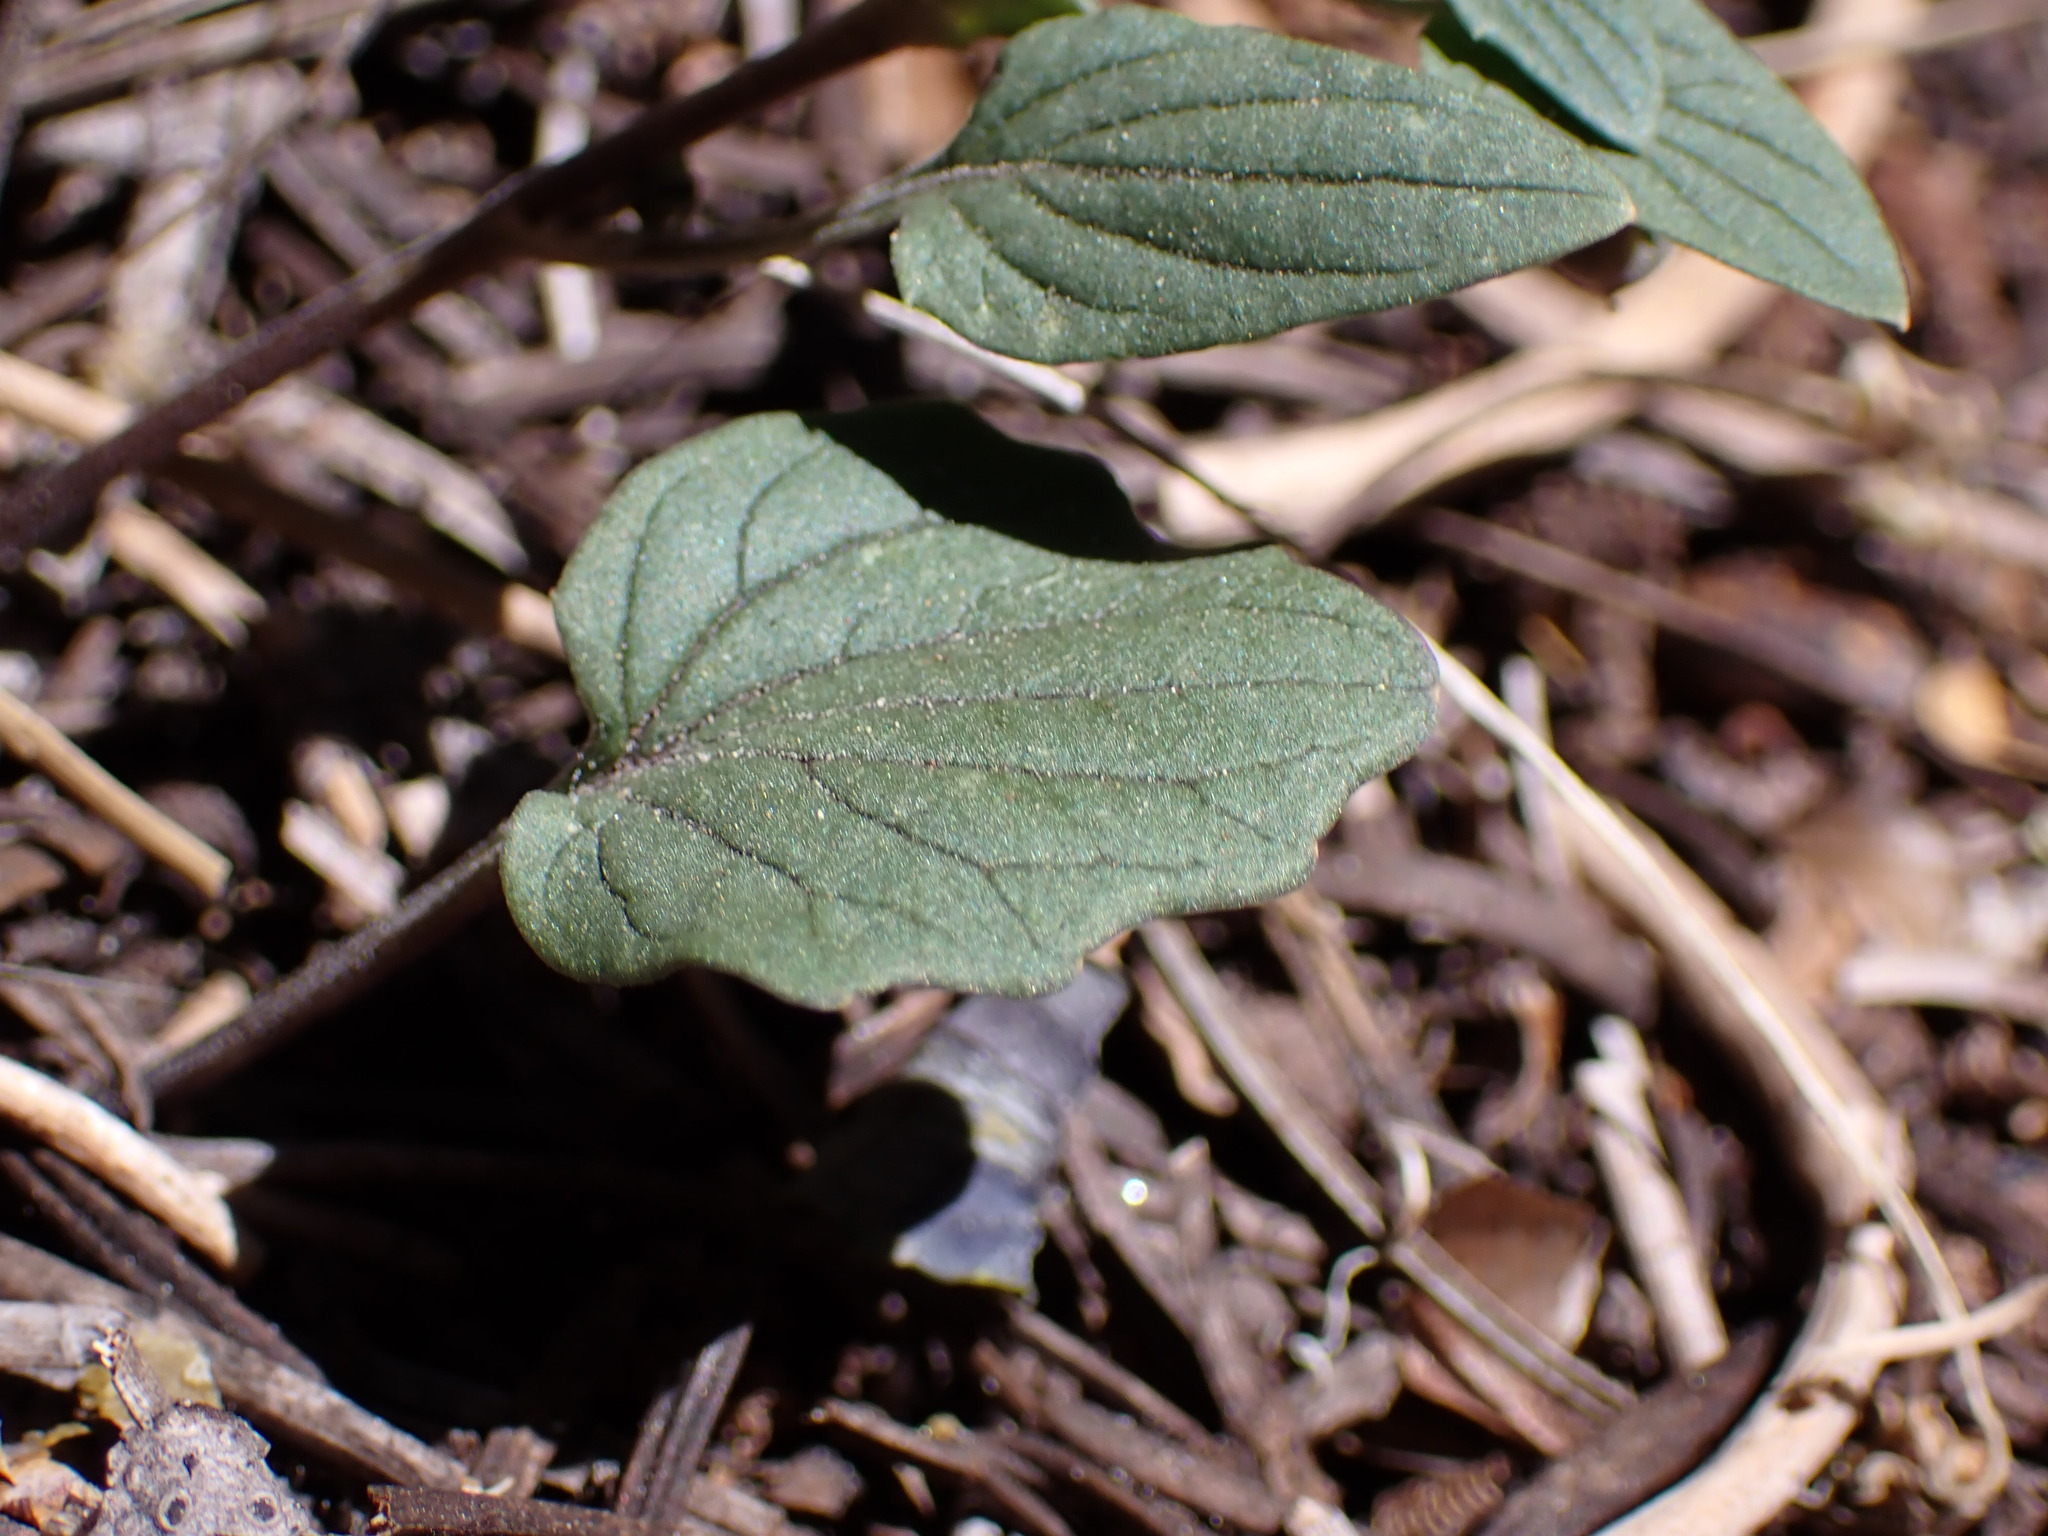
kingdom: Plantae
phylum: Tracheophyta
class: Magnoliopsida
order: Malpighiales
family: Violaceae
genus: Viola
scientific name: Viola purpurea
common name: Pine violet
